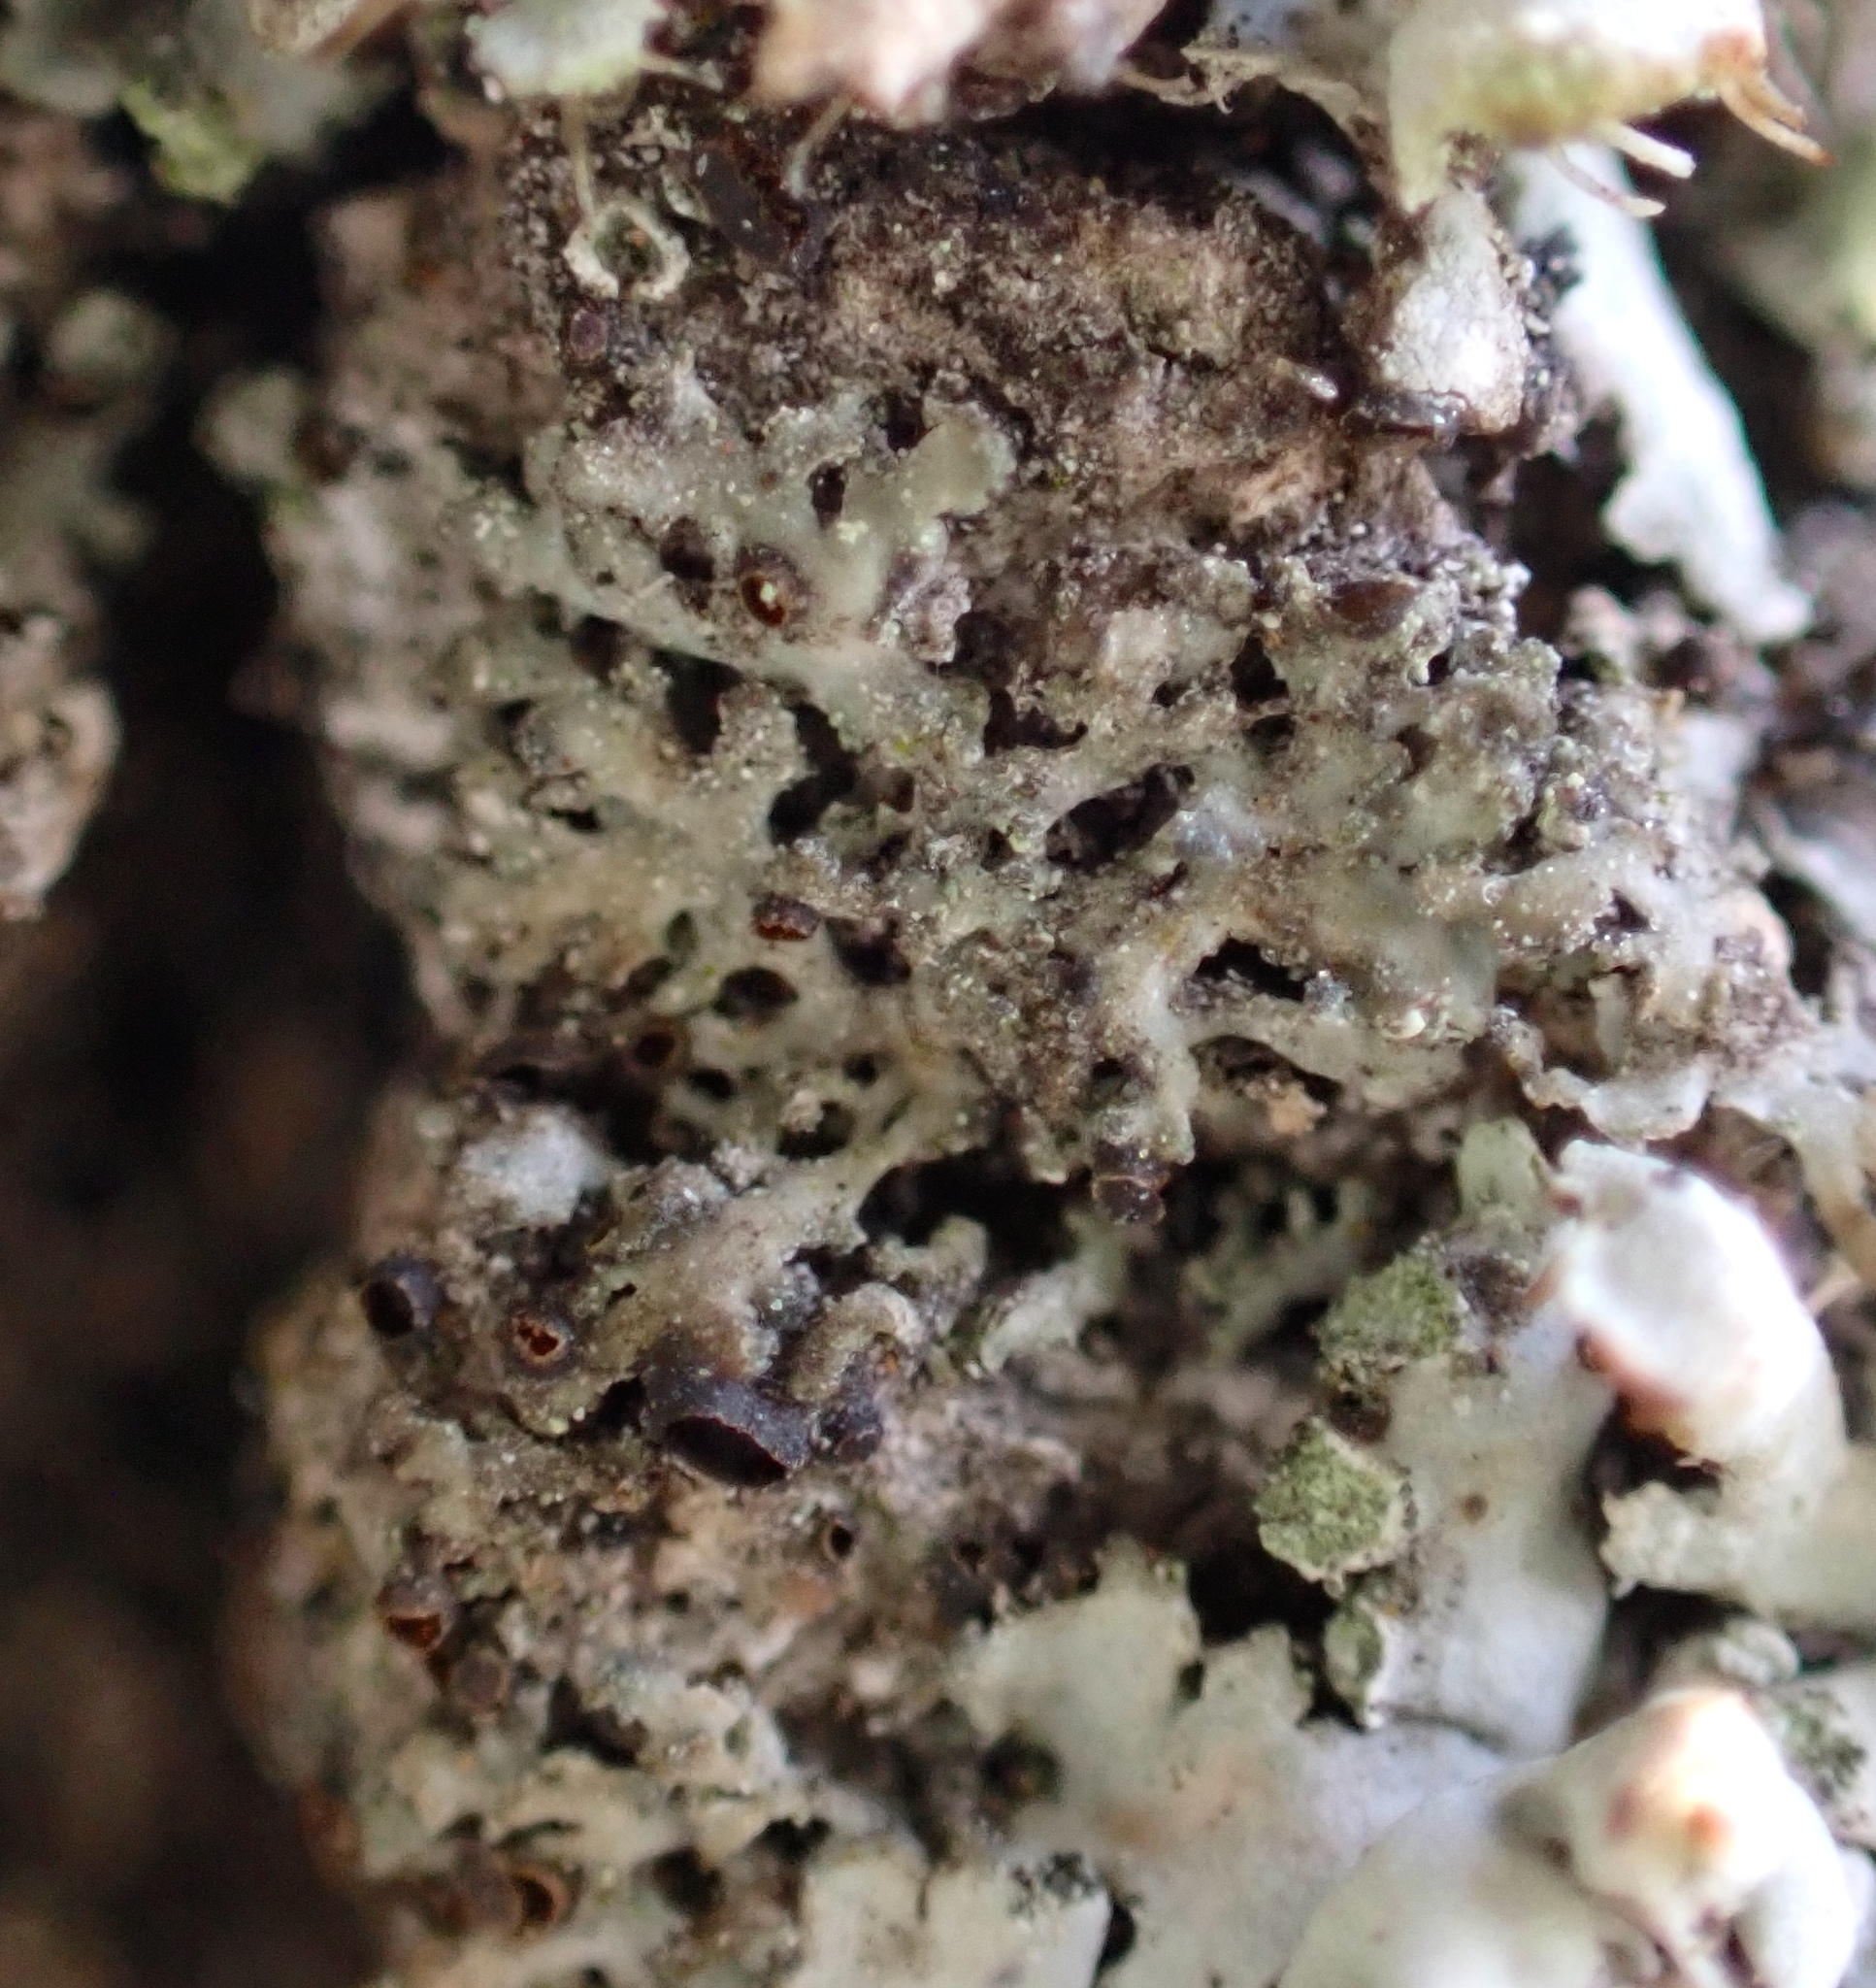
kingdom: Fungi
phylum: Ascomycota
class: Lecanoromycetes
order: Caliciales
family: Physciaceae
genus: Physciella
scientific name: Physciella nigricans
